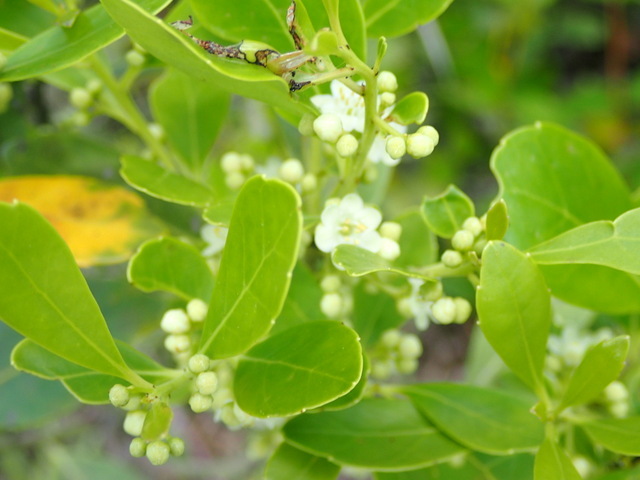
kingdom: Plantae
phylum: Tracheophyta
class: Magnoliopsida
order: Aquifoliales
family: Aquifoliaceae
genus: Ilex
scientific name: Ilex glabra
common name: Bitter gallberry
